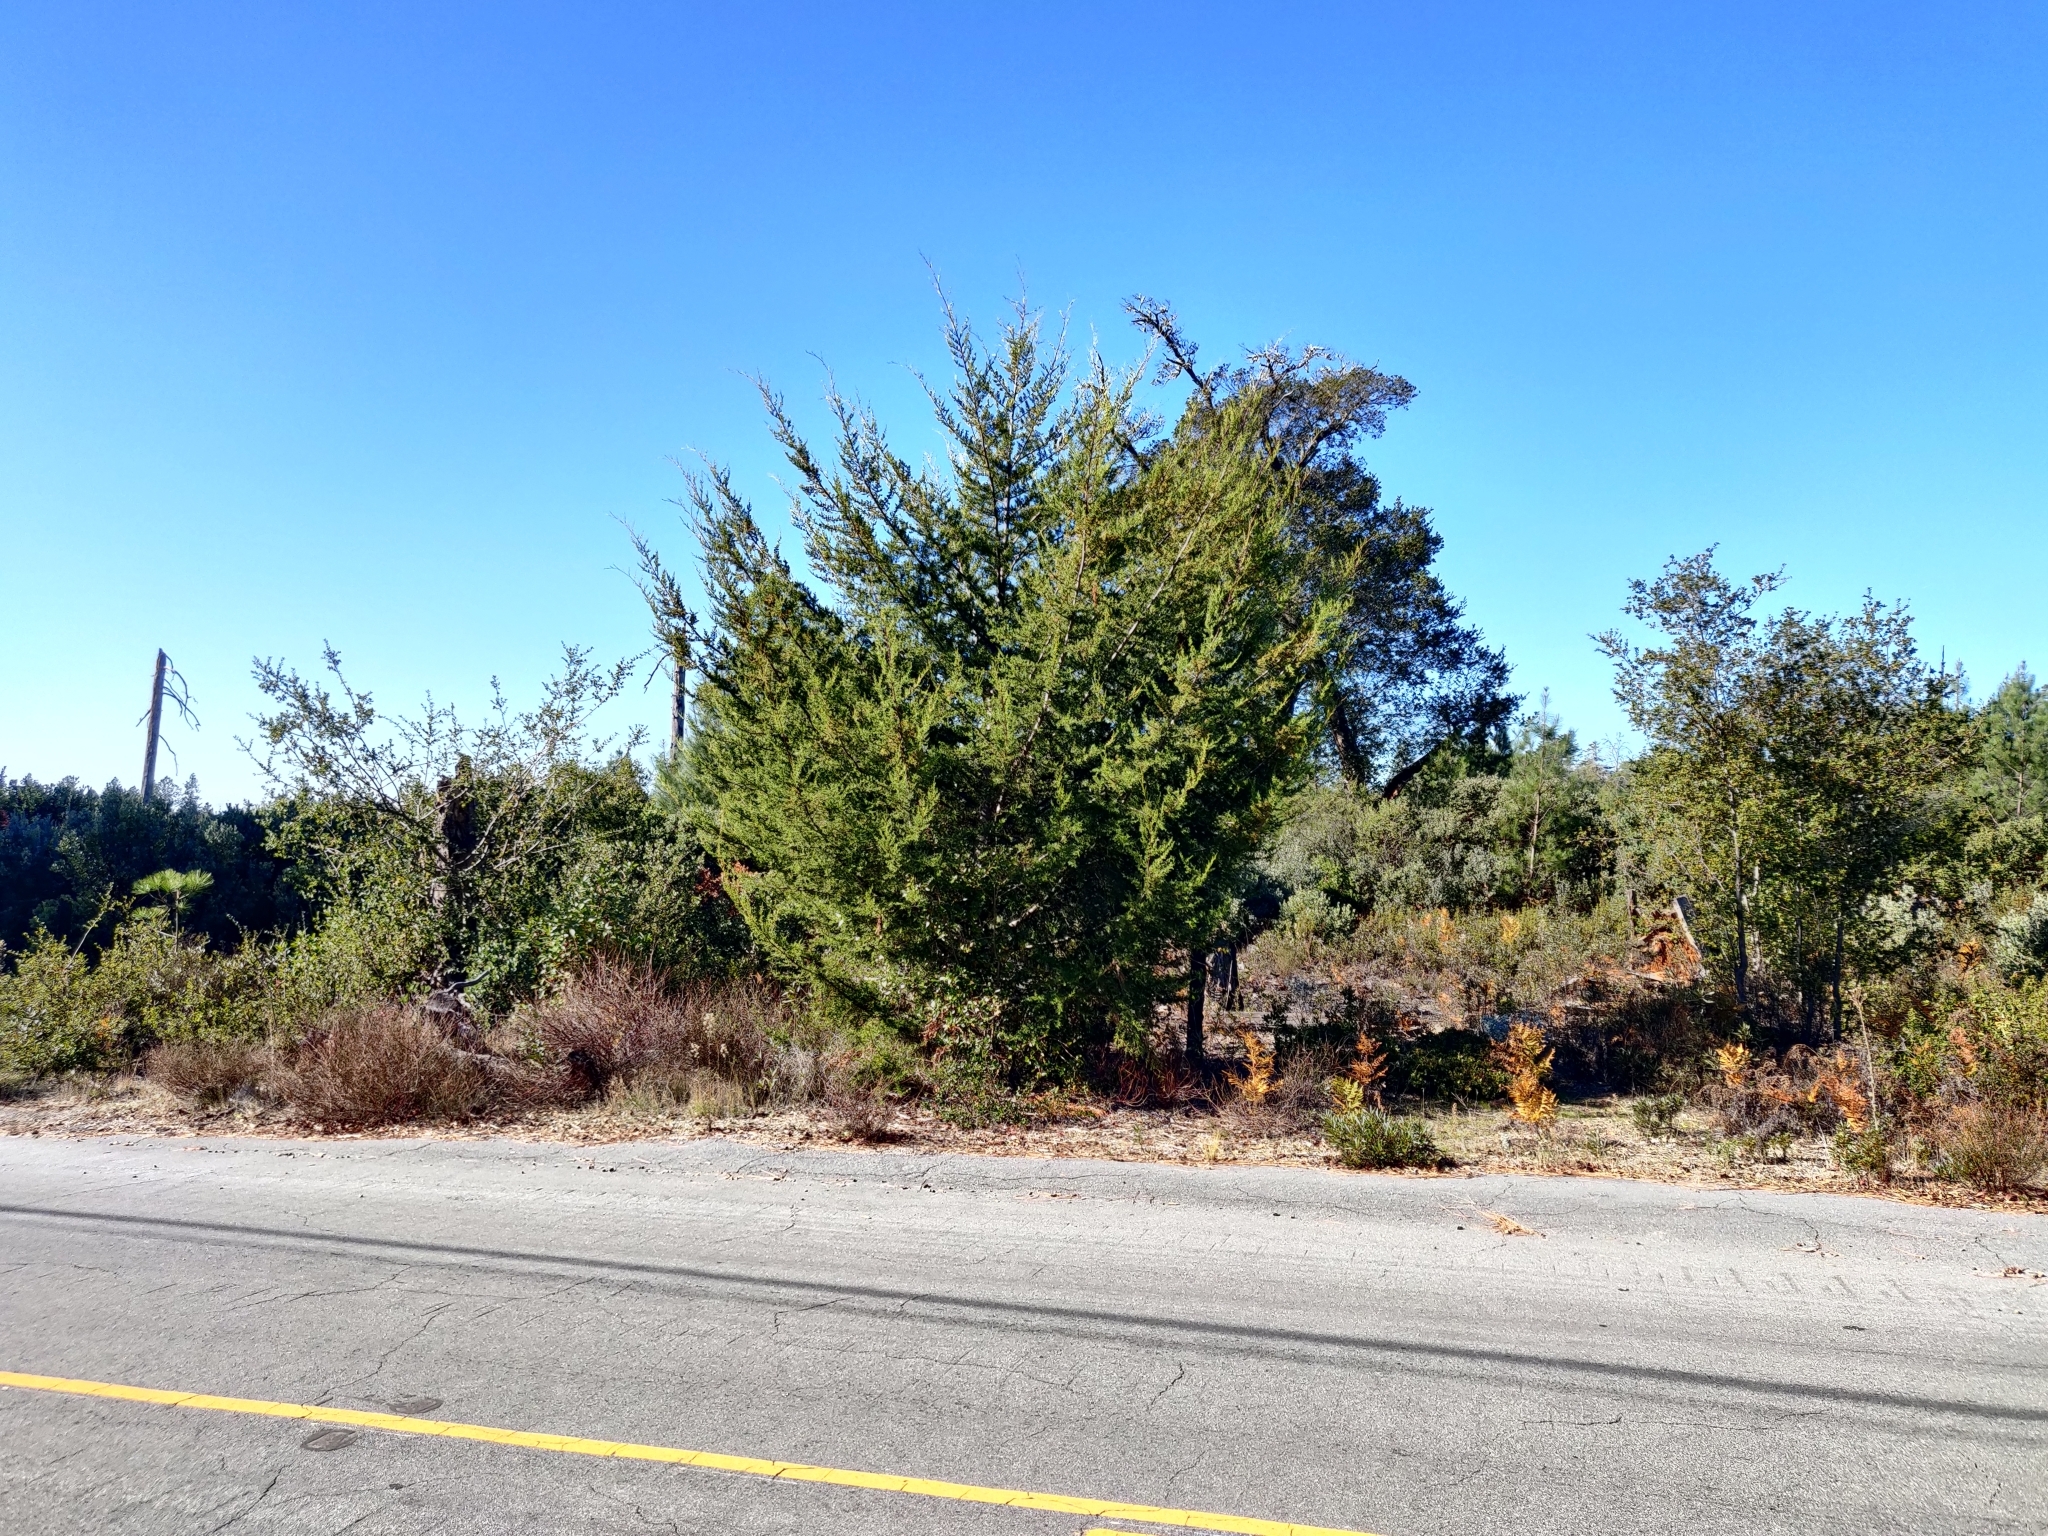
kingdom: Plantae
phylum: Tracheophyta
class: Pinopsida
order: Pinales
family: Cupressaceae
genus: Cupressus
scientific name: Cupressus goveniana
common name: Gowen cypress
